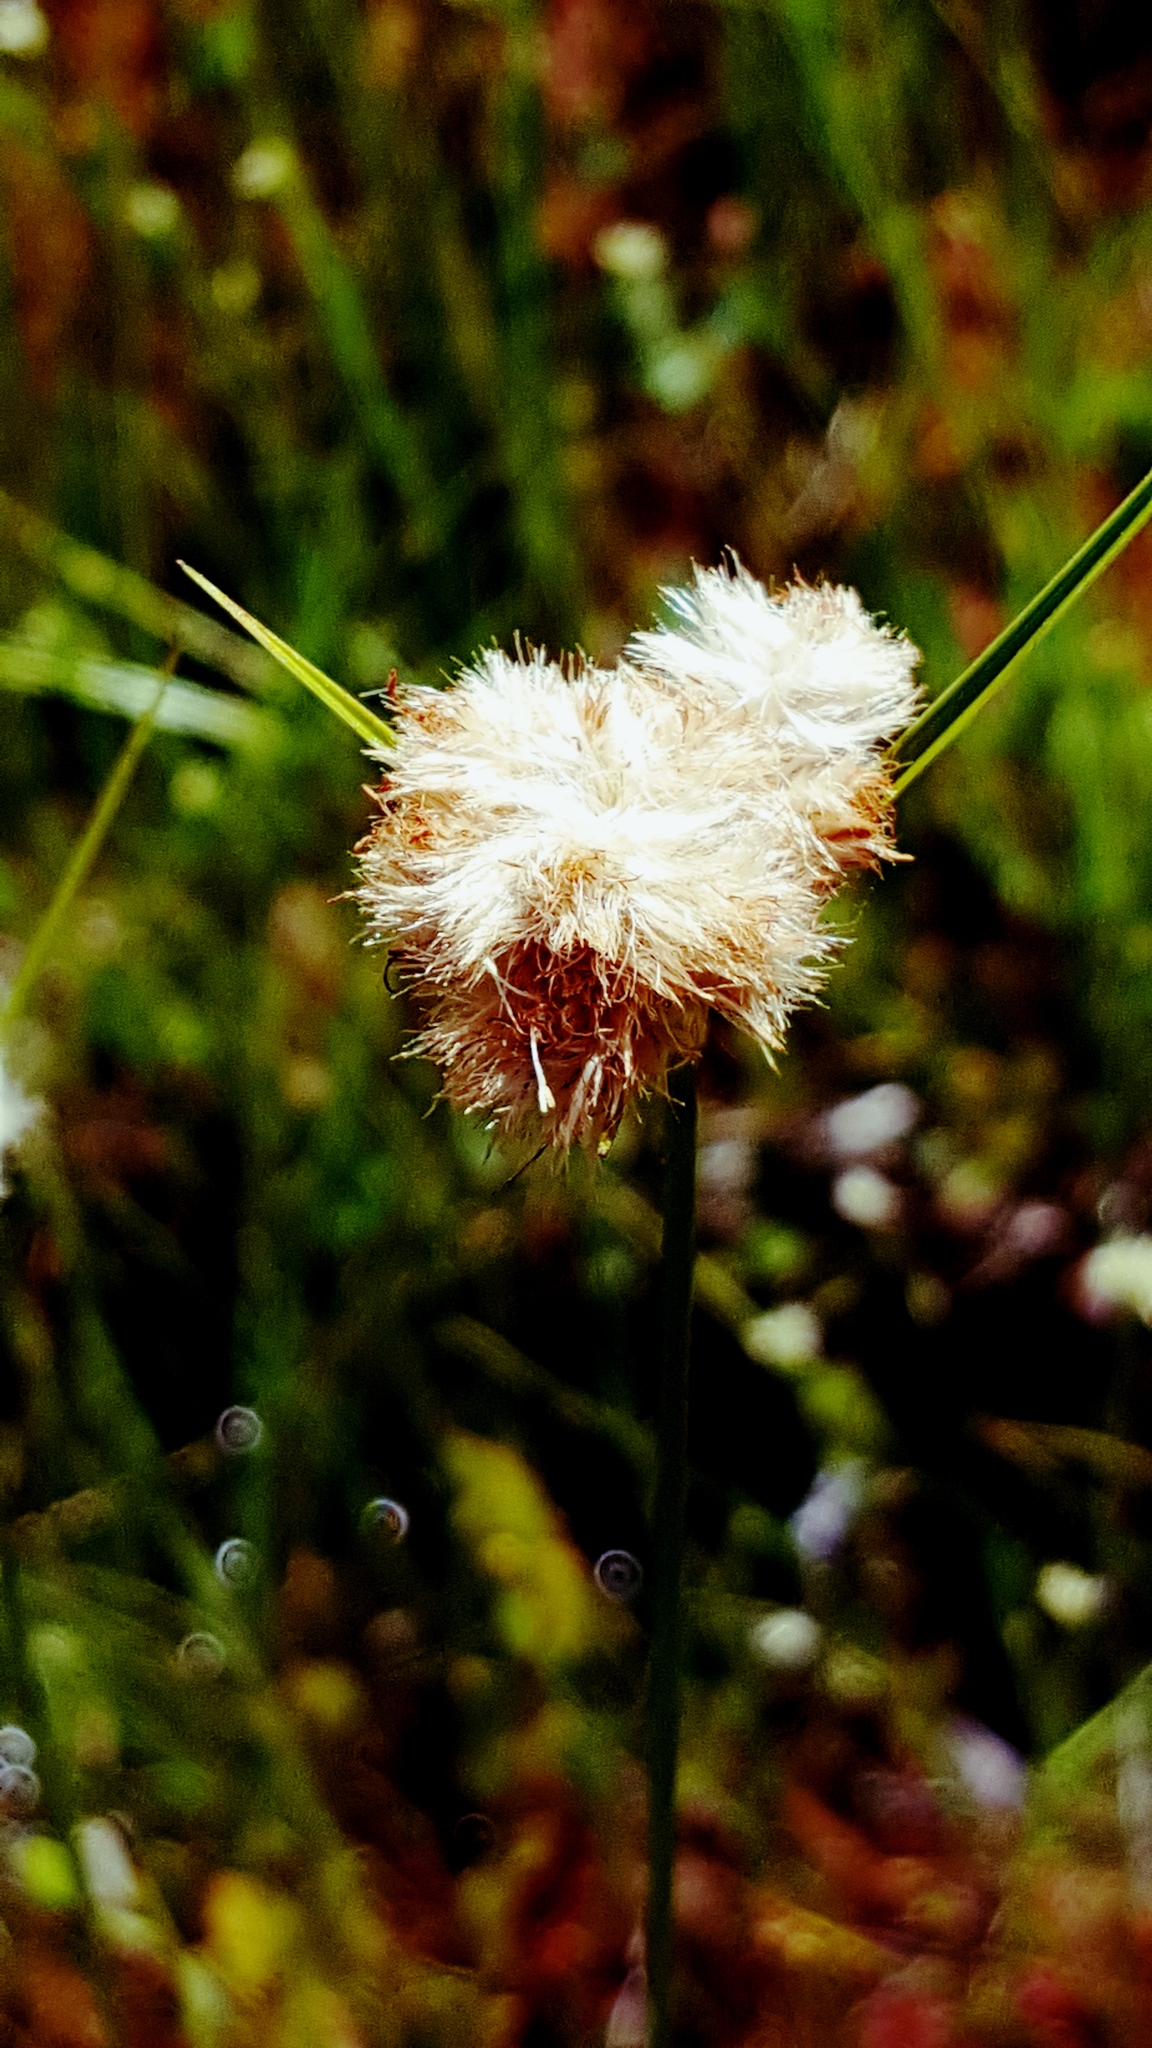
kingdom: Plantae
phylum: Tracheophyta
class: Liliopsida
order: Poales
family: Cyperaceae
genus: Eriophorum
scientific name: Eriophorum virginicum
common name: Tawny cottongrass
